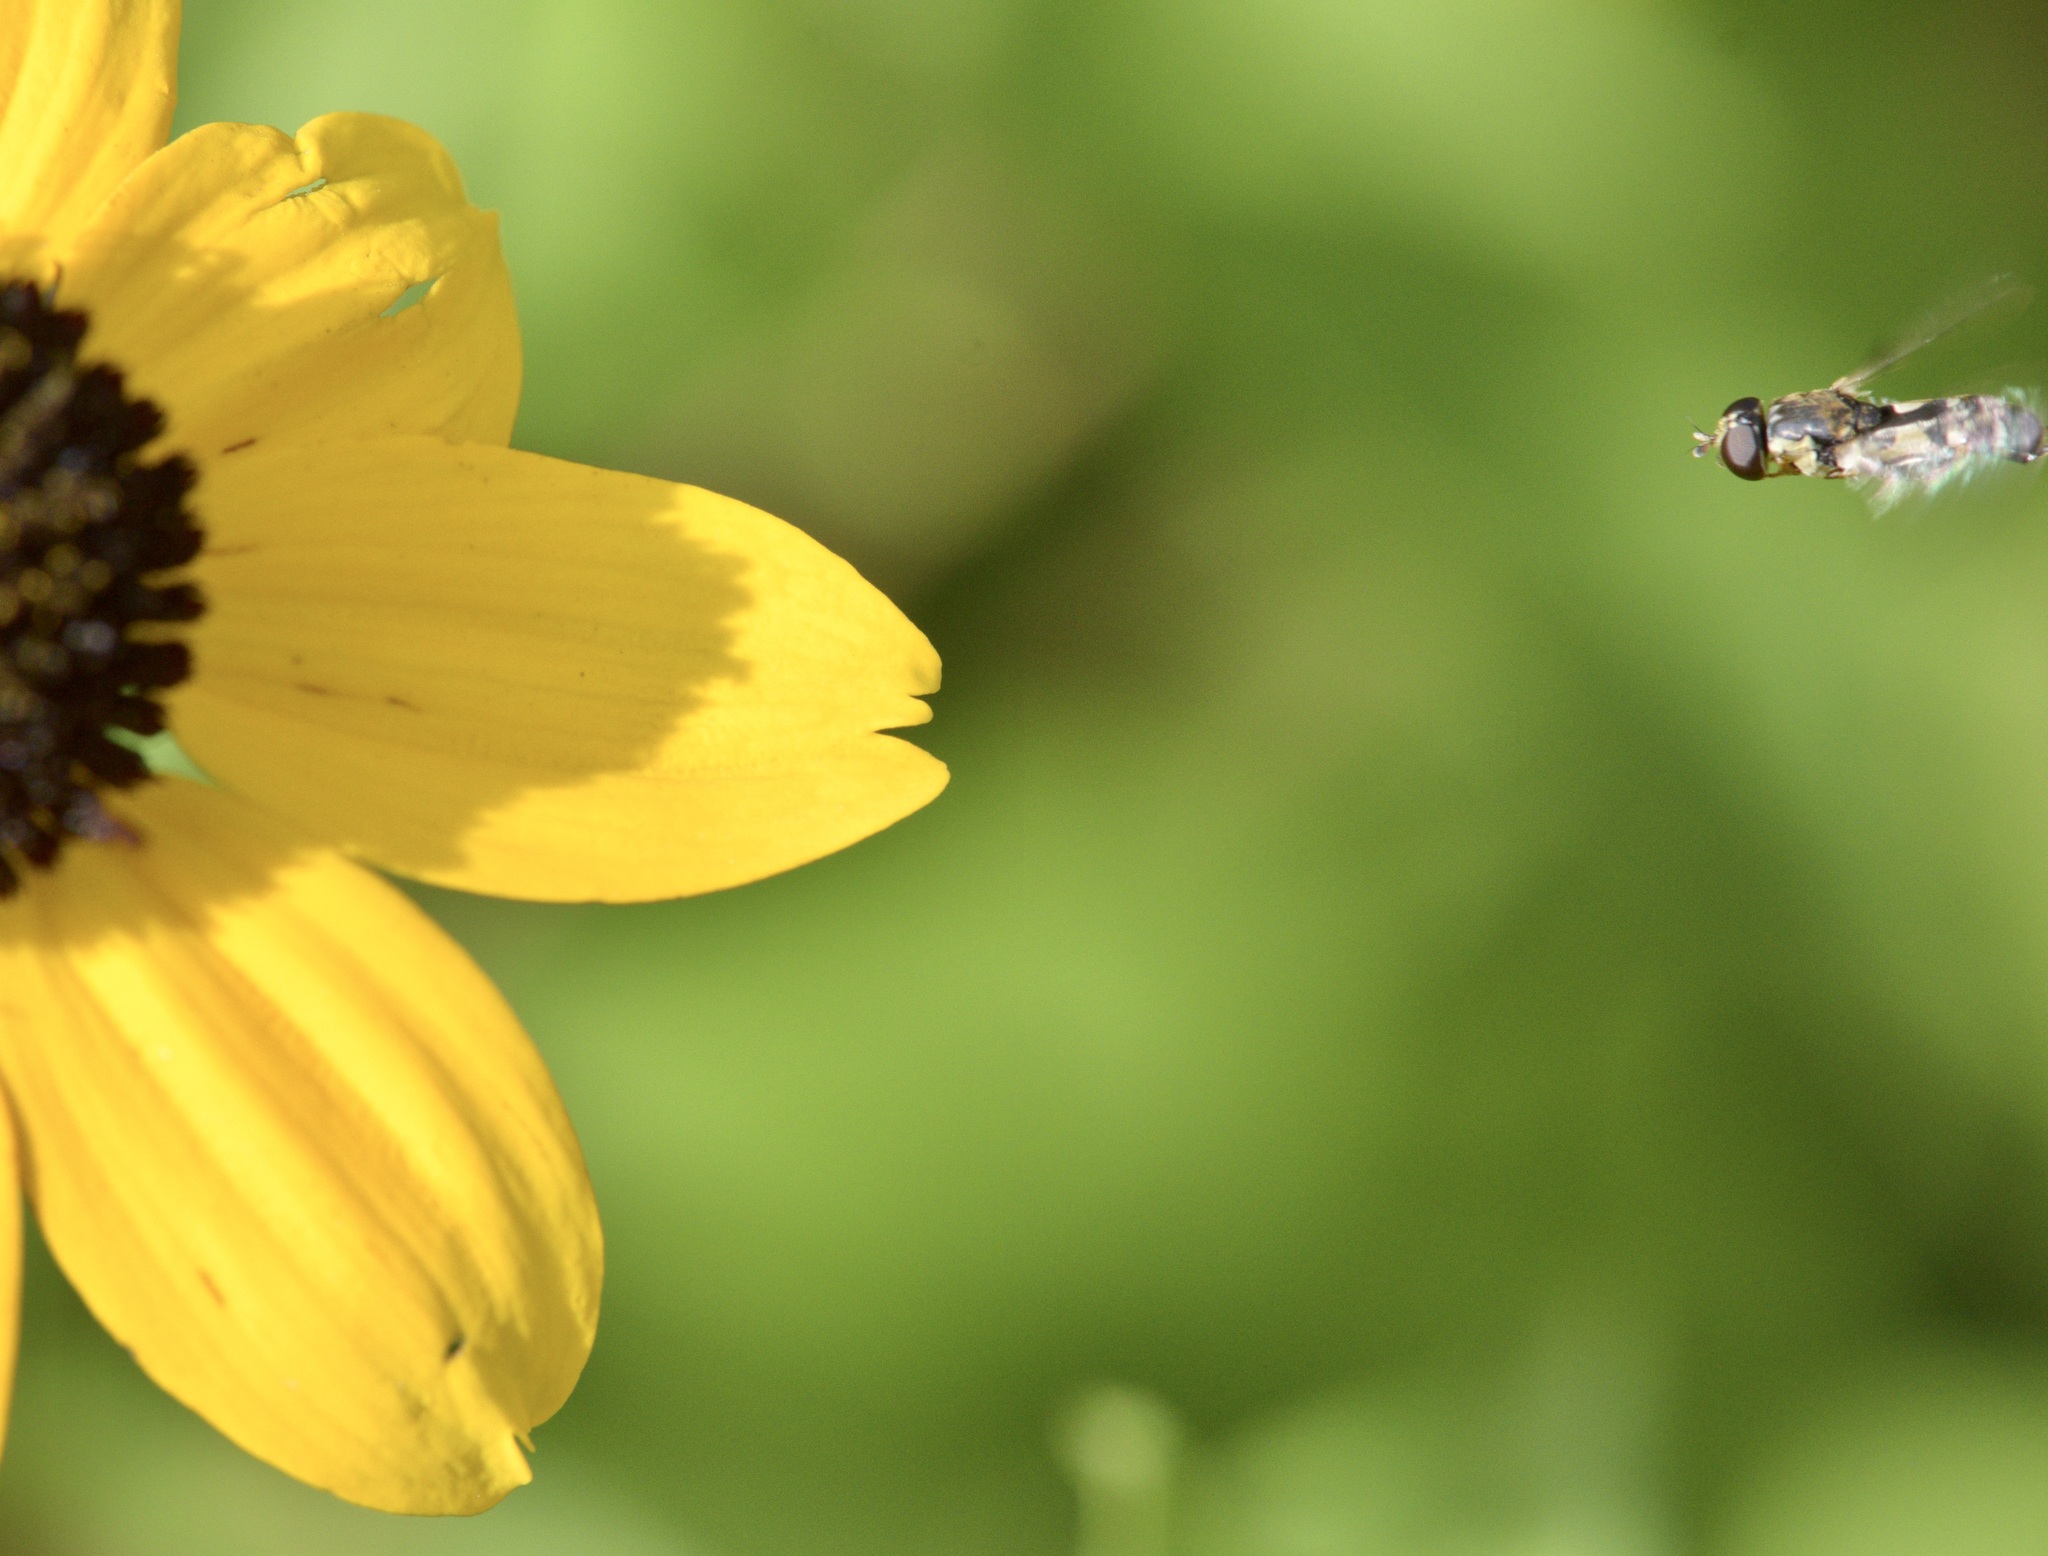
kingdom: Animalia
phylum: Arthropoda
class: Insecta
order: Diptera
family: Syrphidae
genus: Syritta
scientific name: Syritta pipiens
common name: Hover fly
